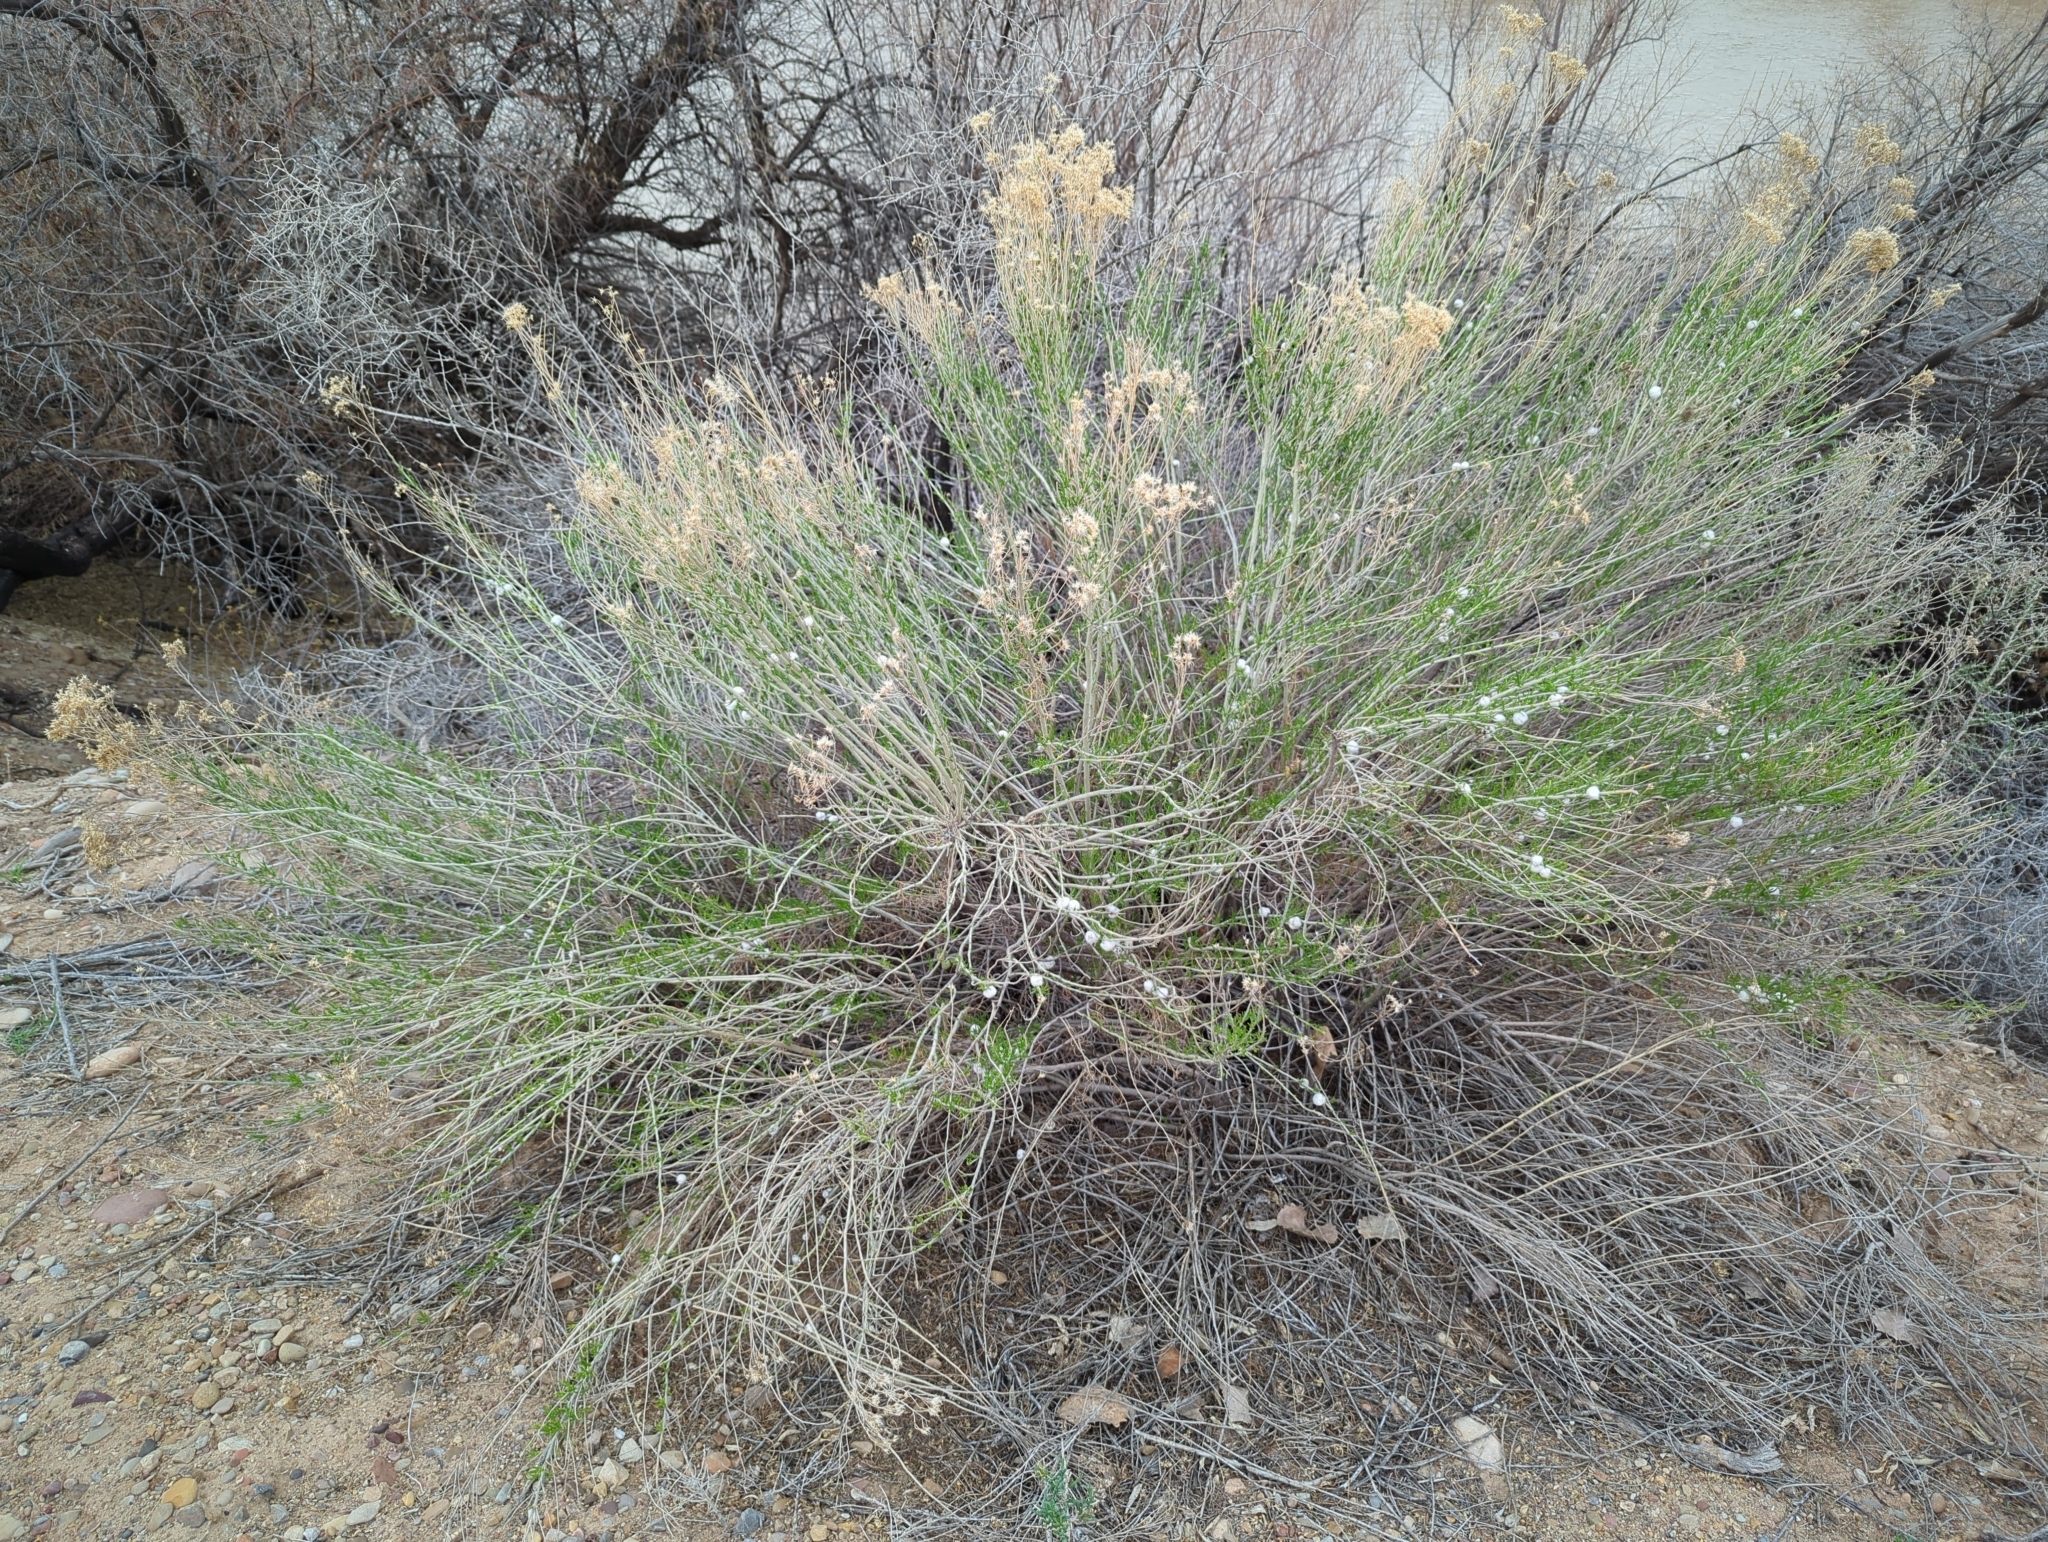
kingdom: Plantae
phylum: Tracheophyta
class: Magnoliopsida
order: Asterales
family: Asteraceae
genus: Ericameria
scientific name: Ericameria nauseosa
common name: Rubber rabbitbrush
